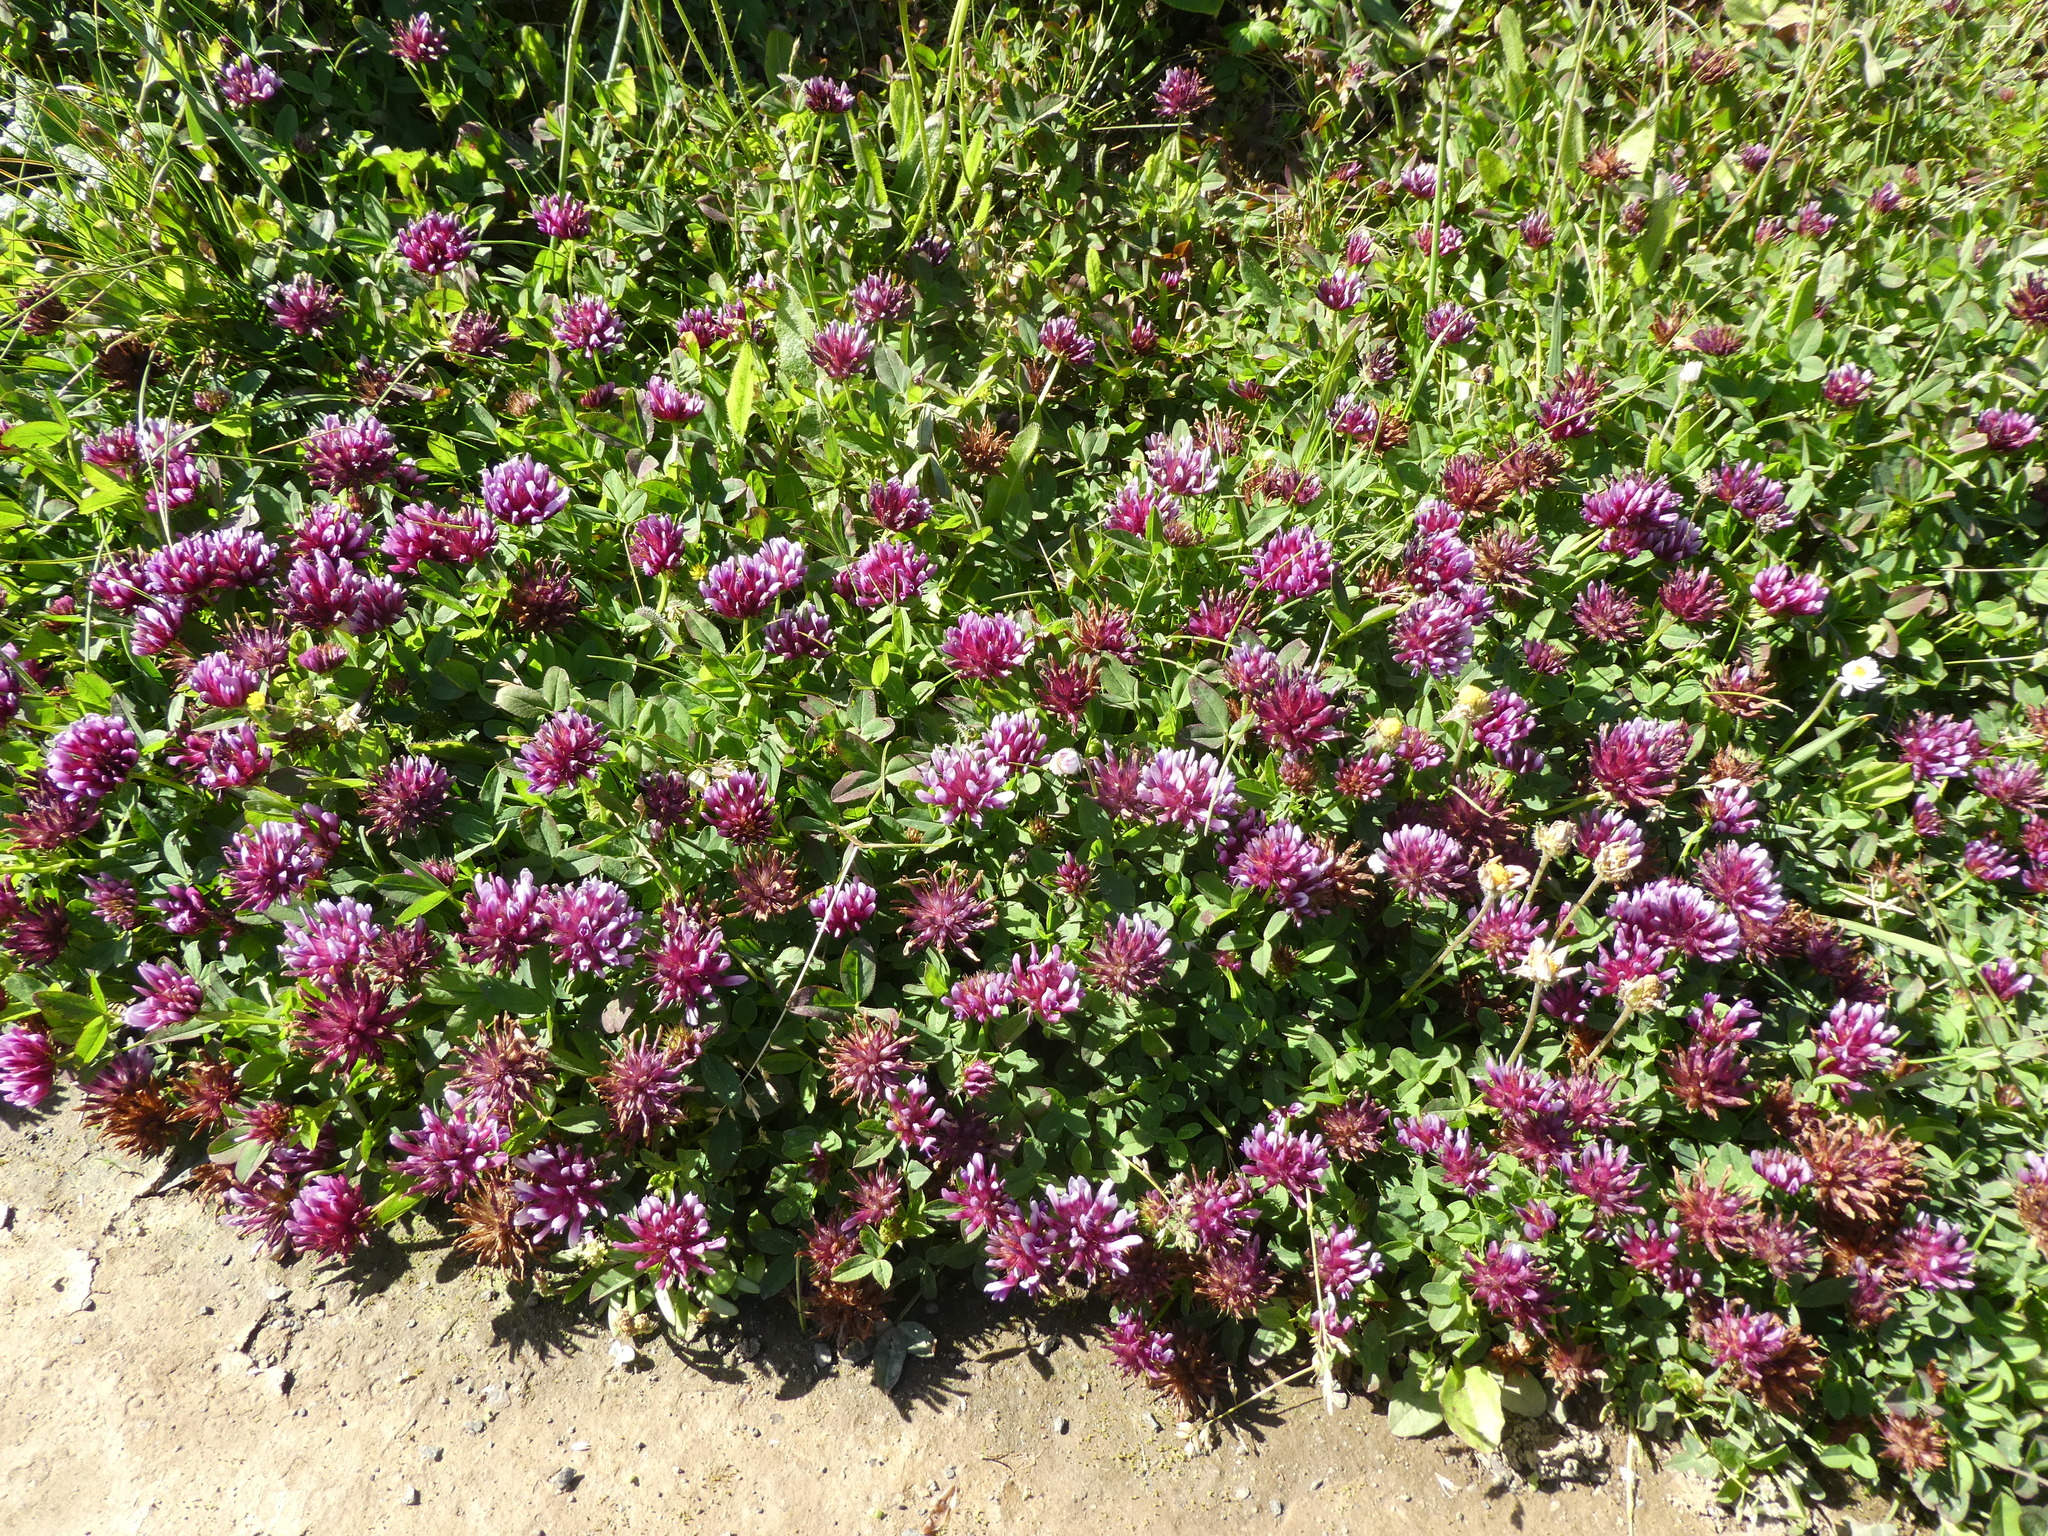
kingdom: Plantae
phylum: Tracheophyta
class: Magnoliopsida
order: Fabales
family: Fabaceae
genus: Trifolium
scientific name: Trifolium wormskioldii
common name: Springbank clover
